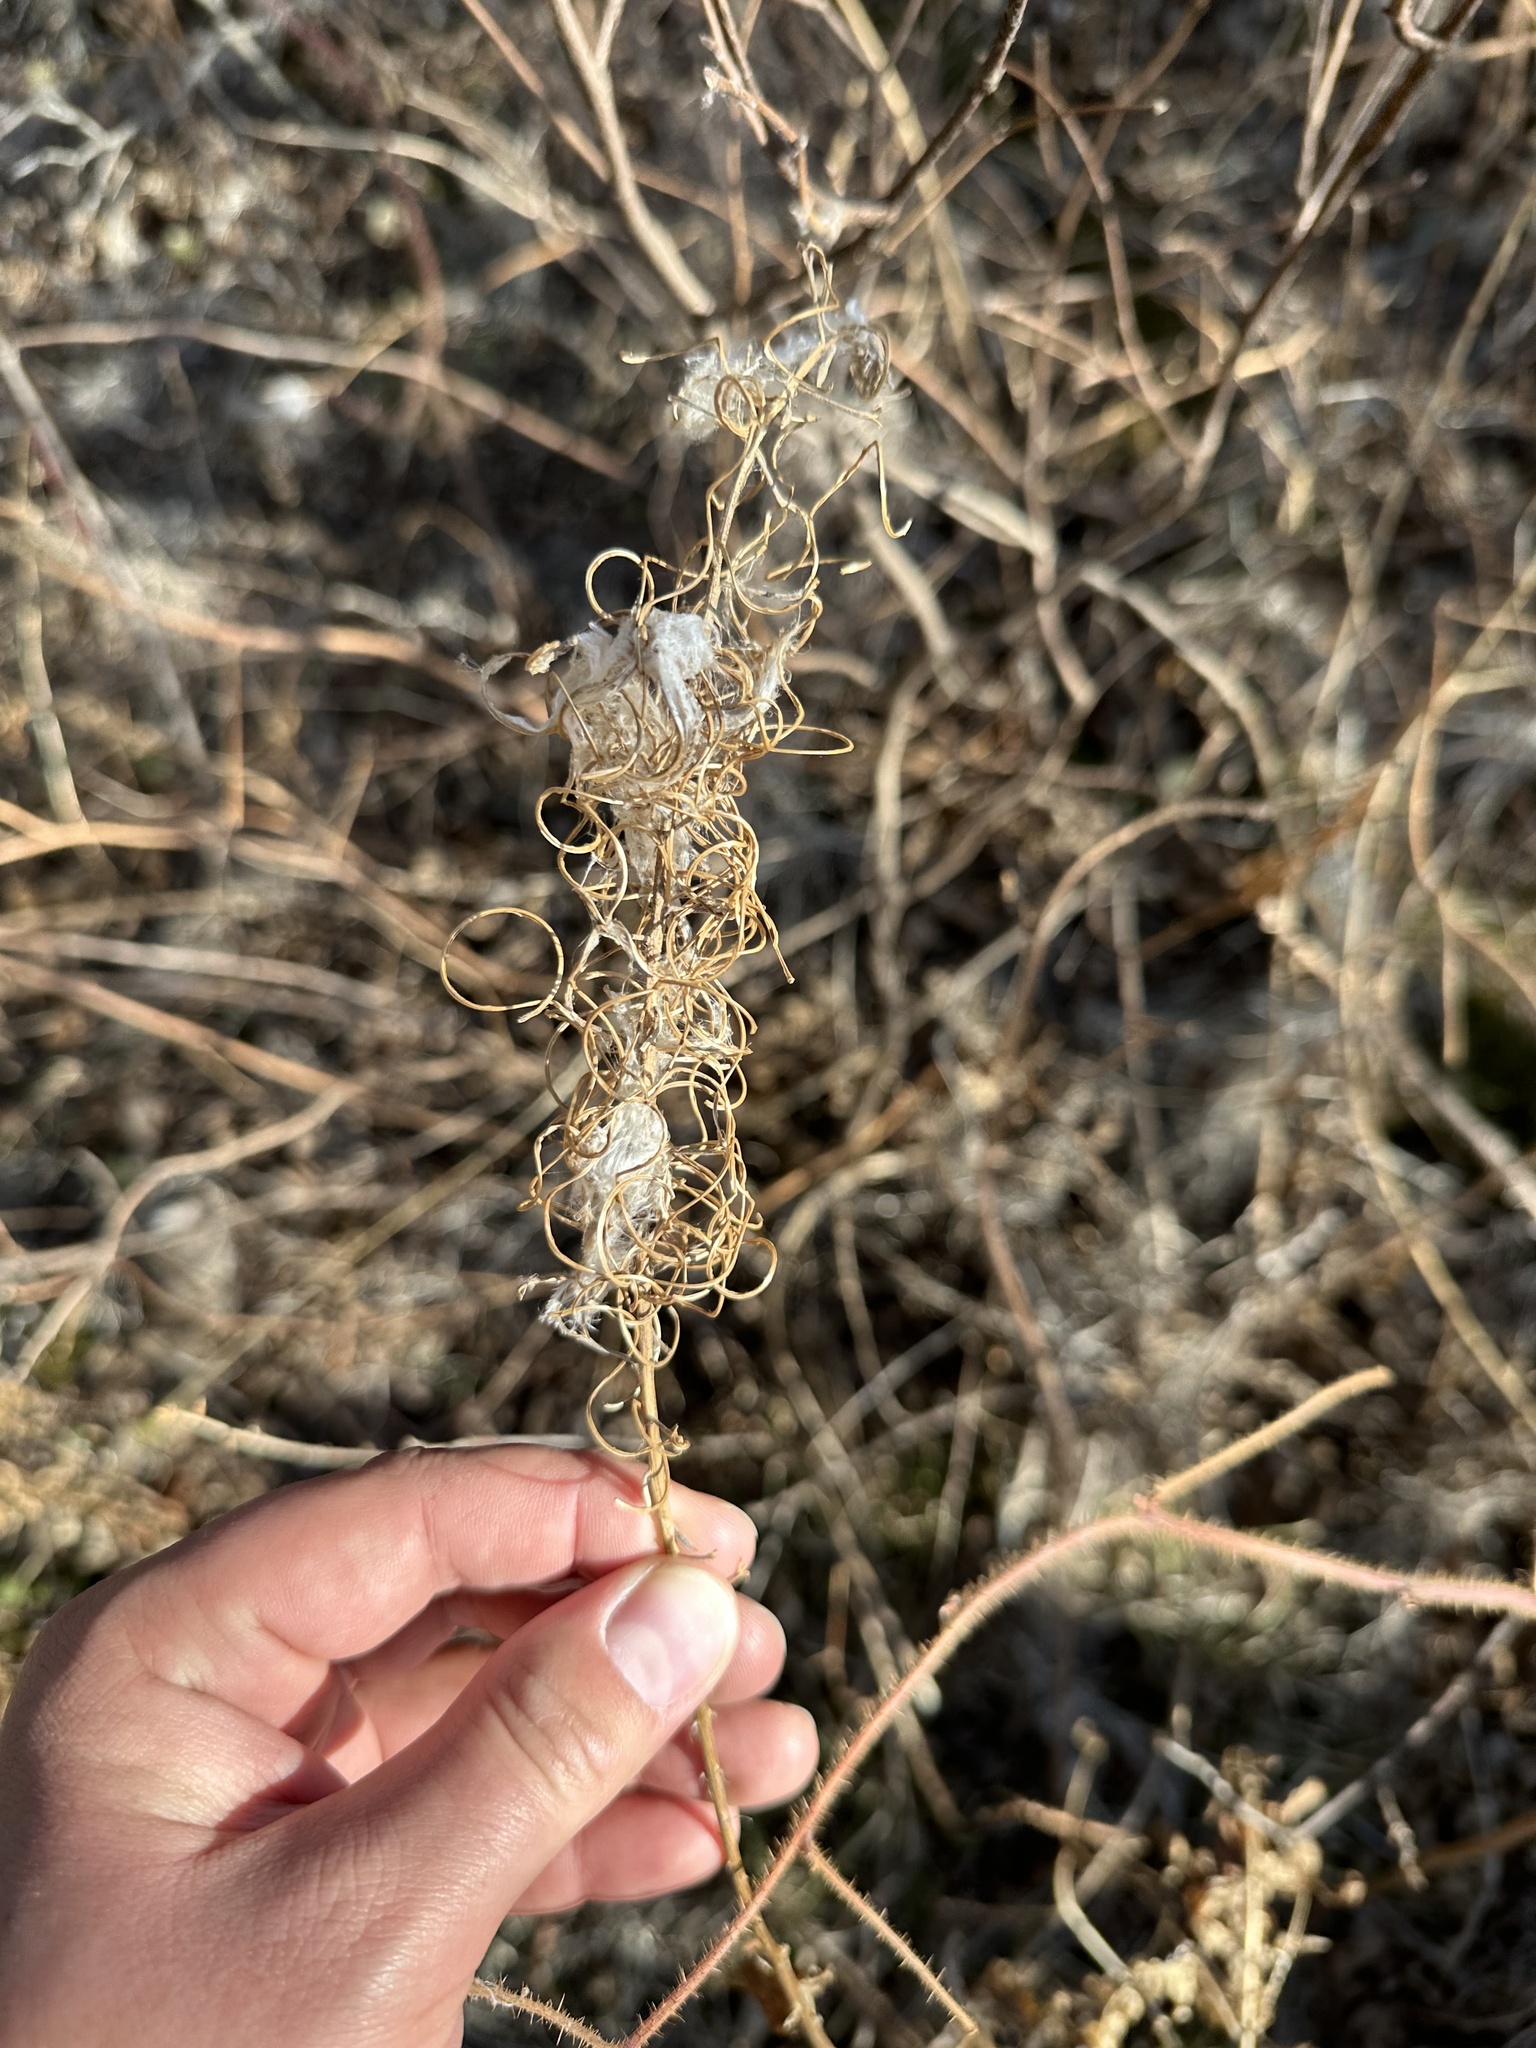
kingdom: Plantae
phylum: Tracheophyta
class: Magnoliopsida
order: Myrtales
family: Onagraceae
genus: Chamaenerion
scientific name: Chamaenerion angustifolium
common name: Fireweed
